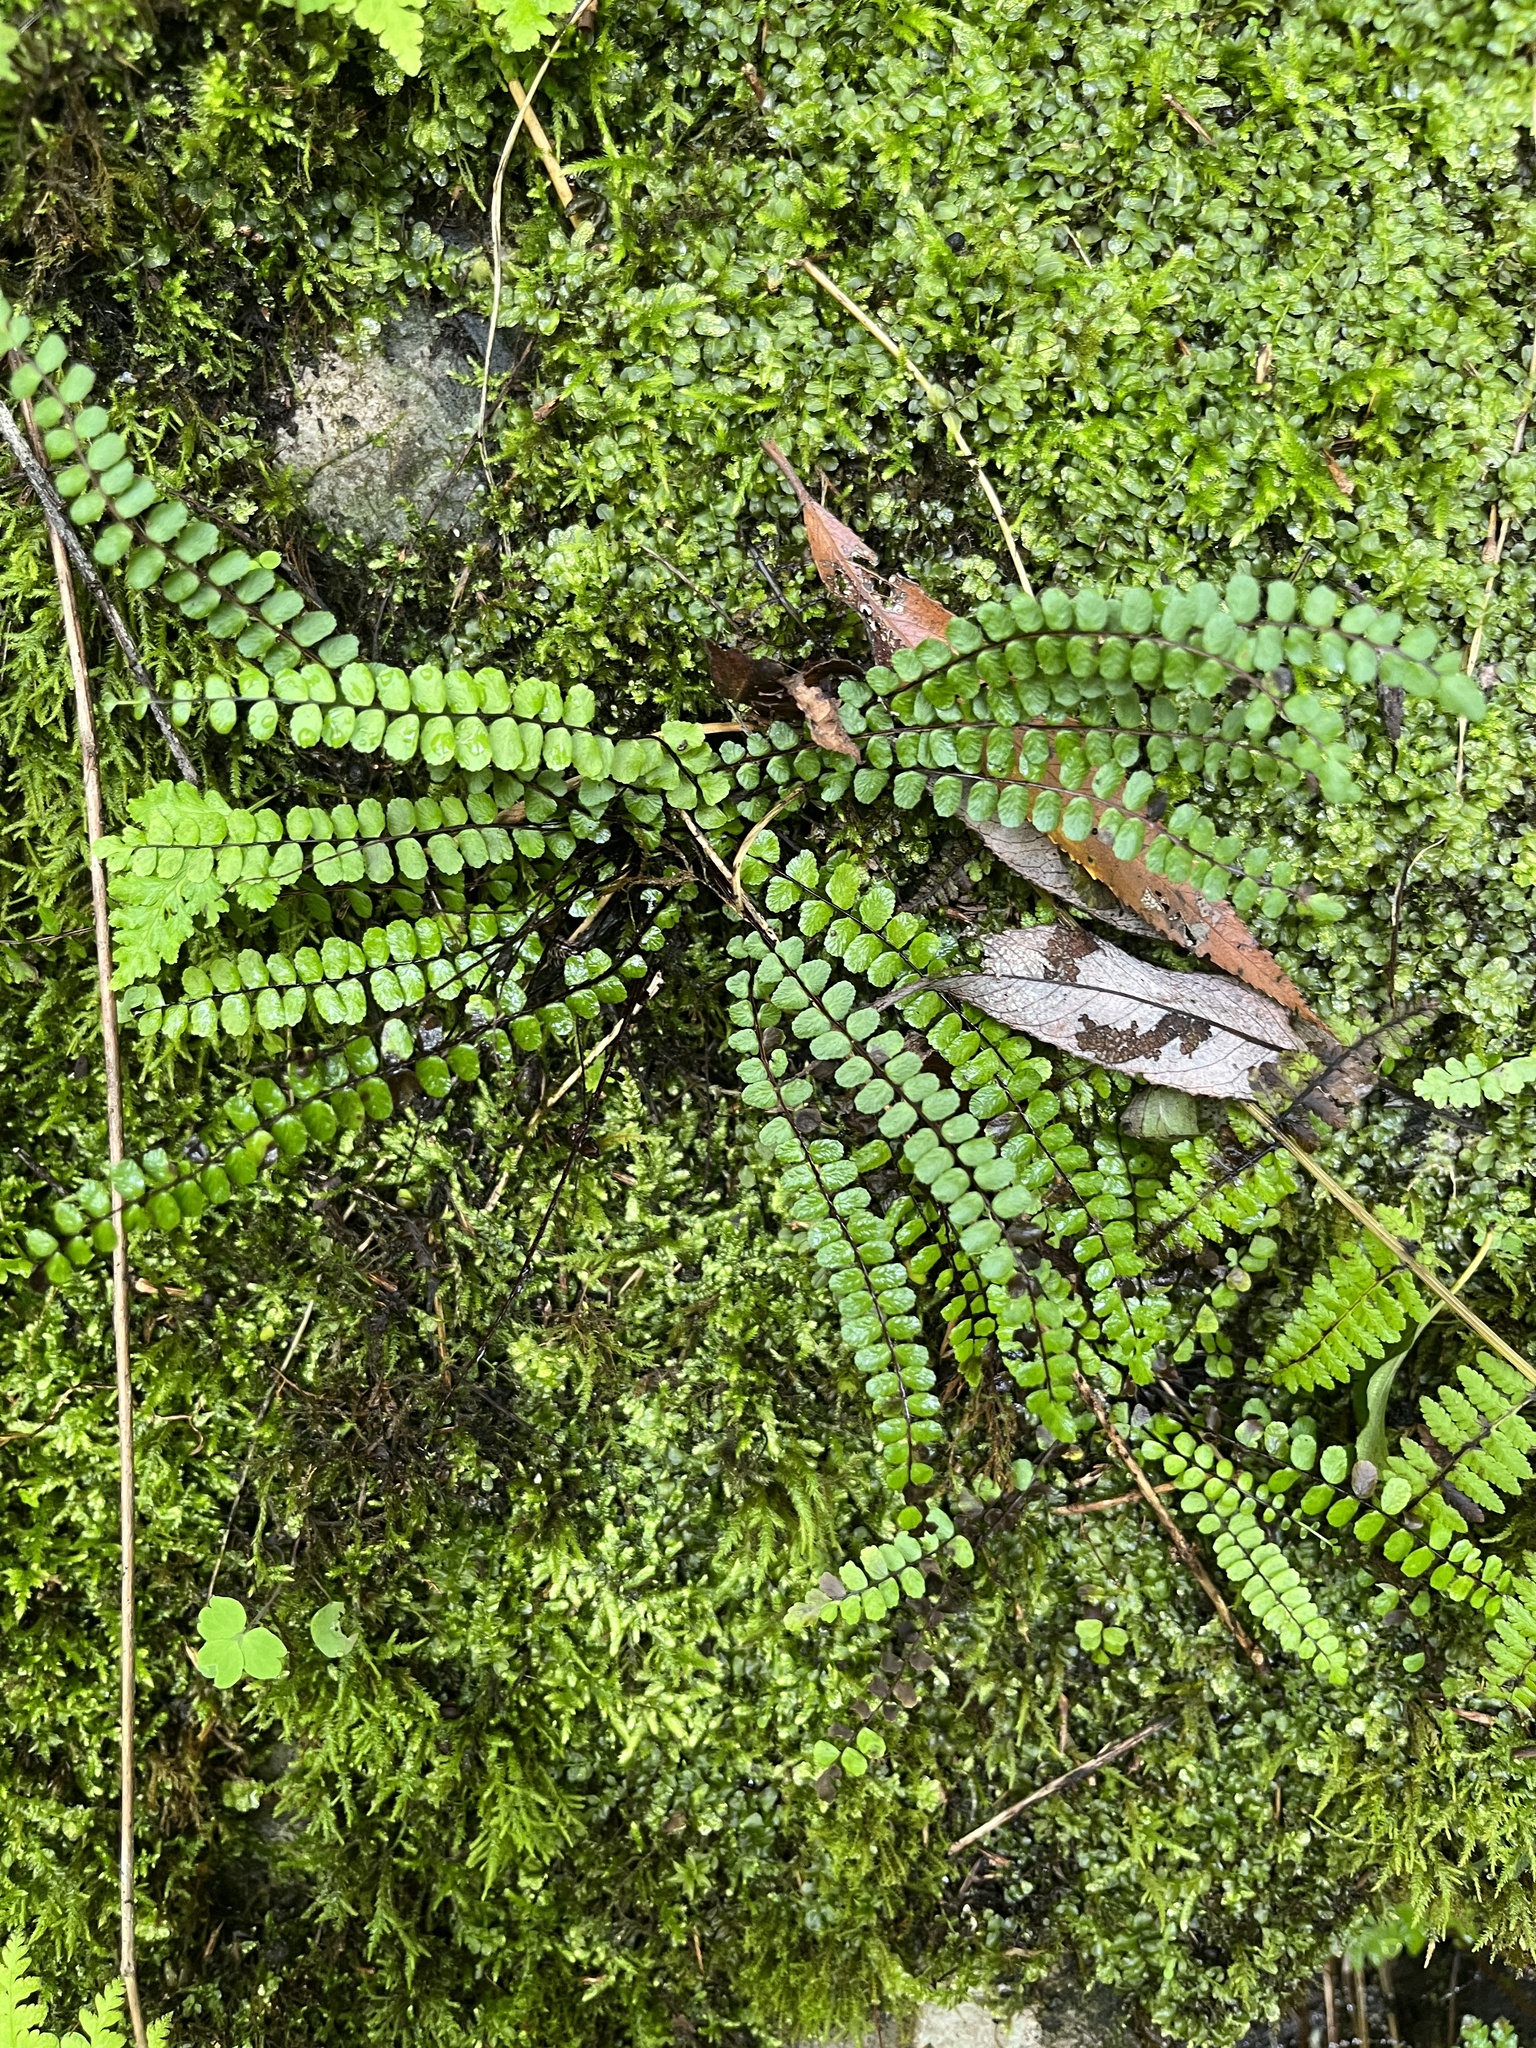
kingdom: Plantae
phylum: Tracheophyta
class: Polypodiopsida
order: Polypodiales
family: Aspleniaceae
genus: Asplenium
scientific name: Asplenium trichomanes
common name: Maidenhair spleenwort
